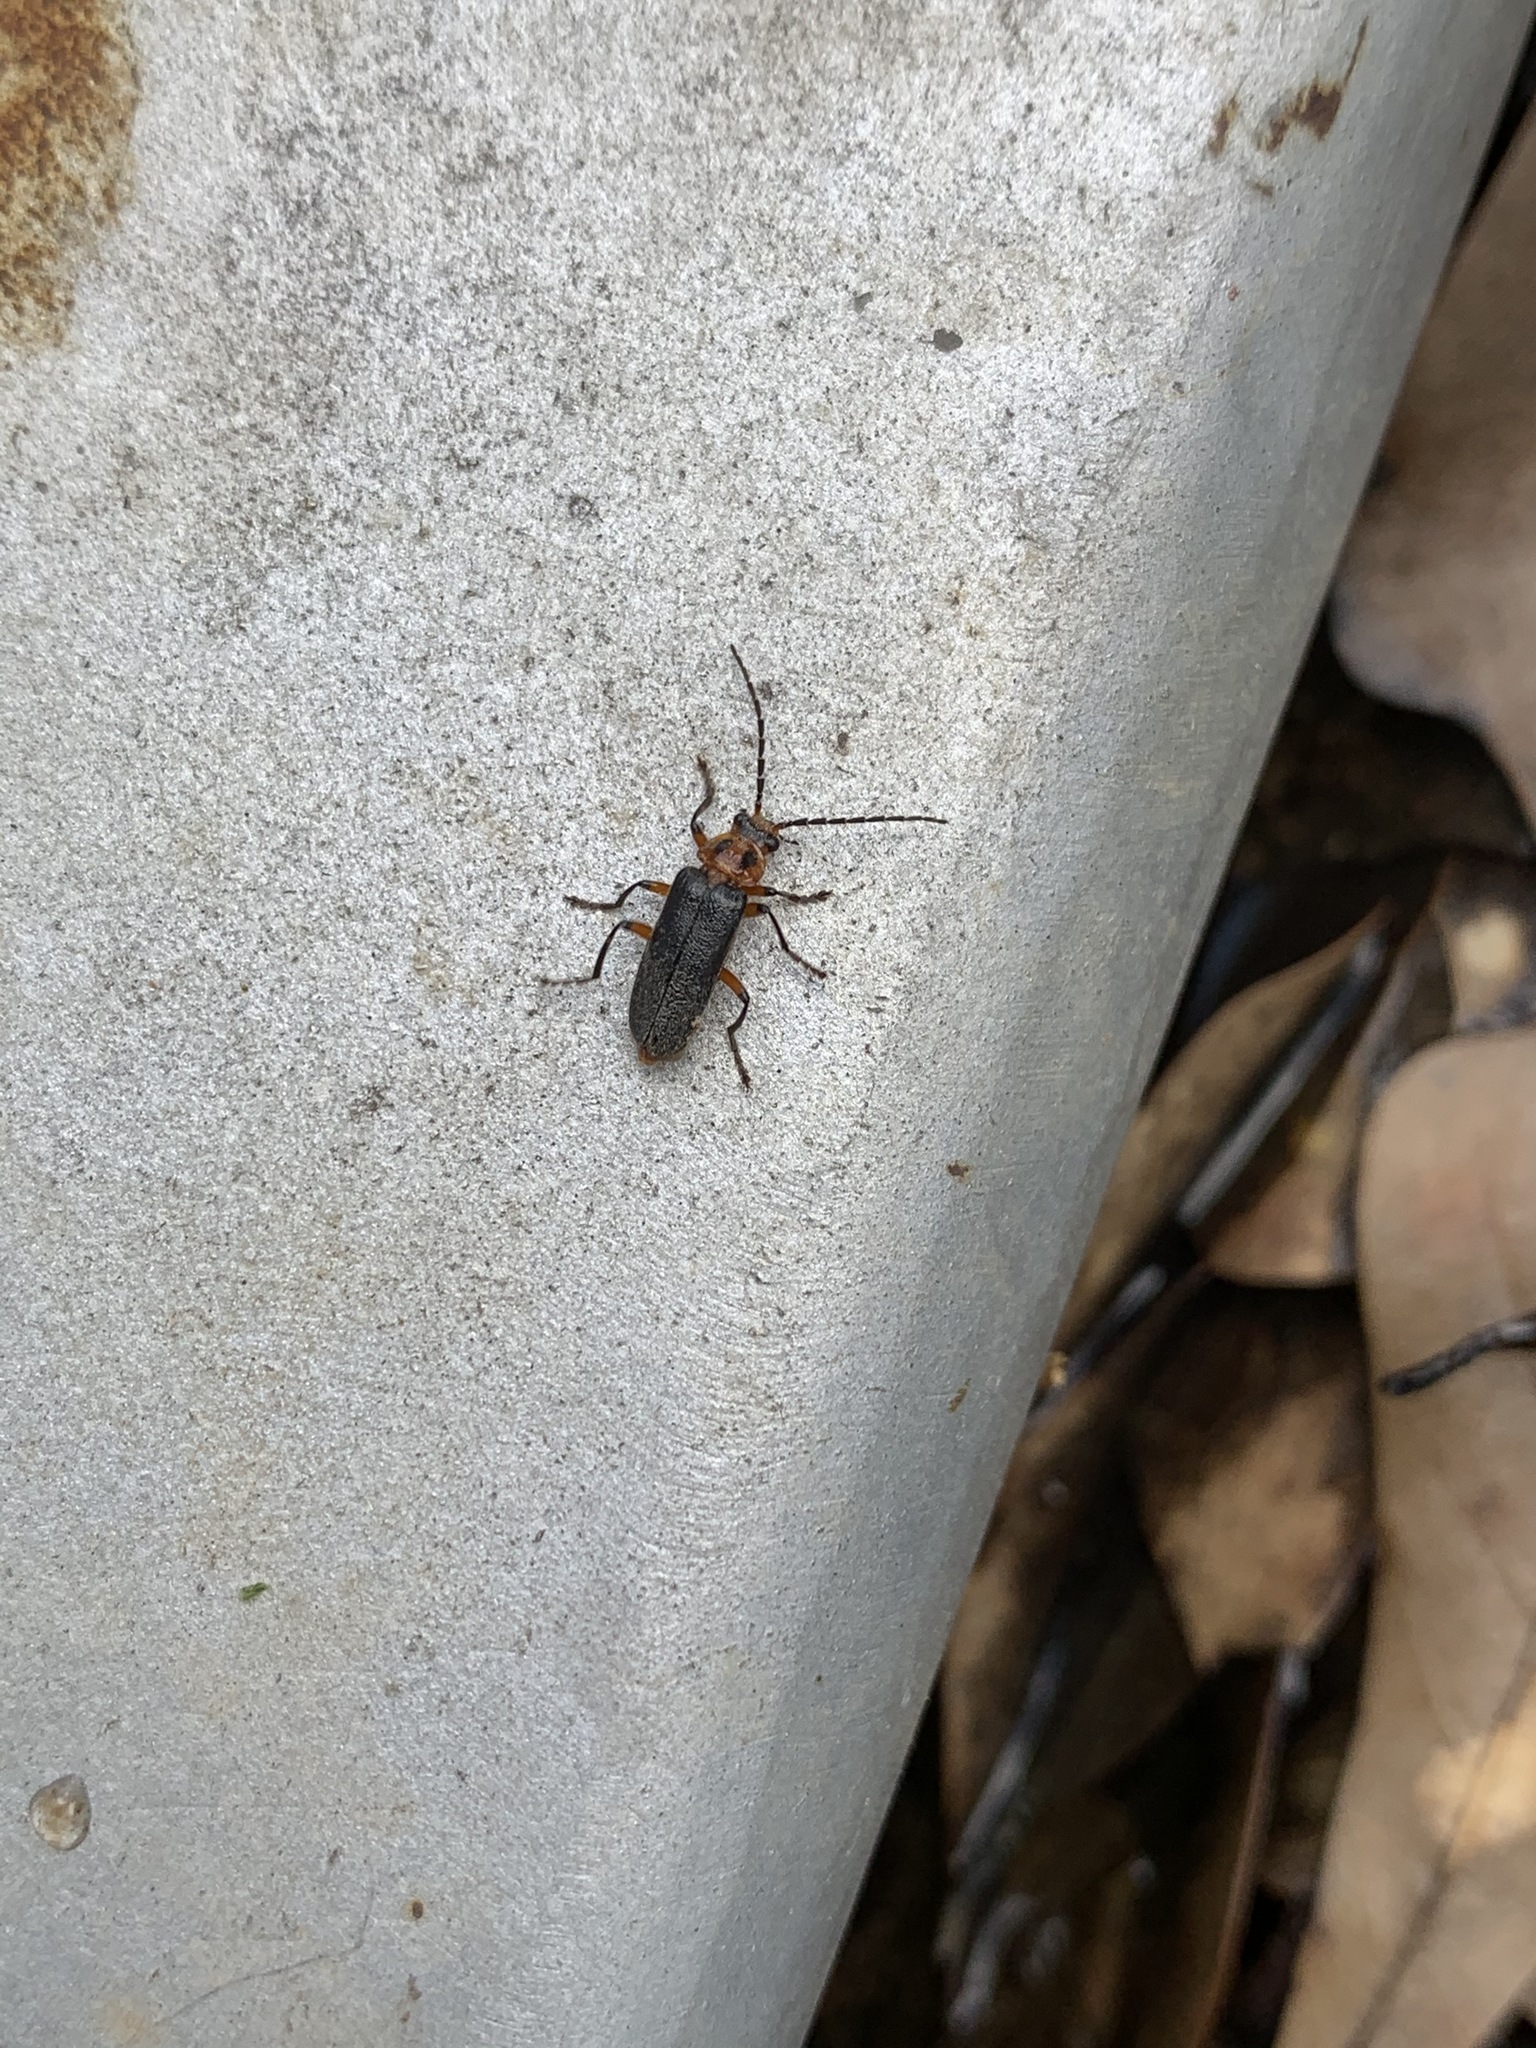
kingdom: Animalia
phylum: Arthropoda
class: Insecta
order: Coleoptera
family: Cantharidae
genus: Atalantycha
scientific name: Atalantycha bilineata
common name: Two-lined leatherwing
